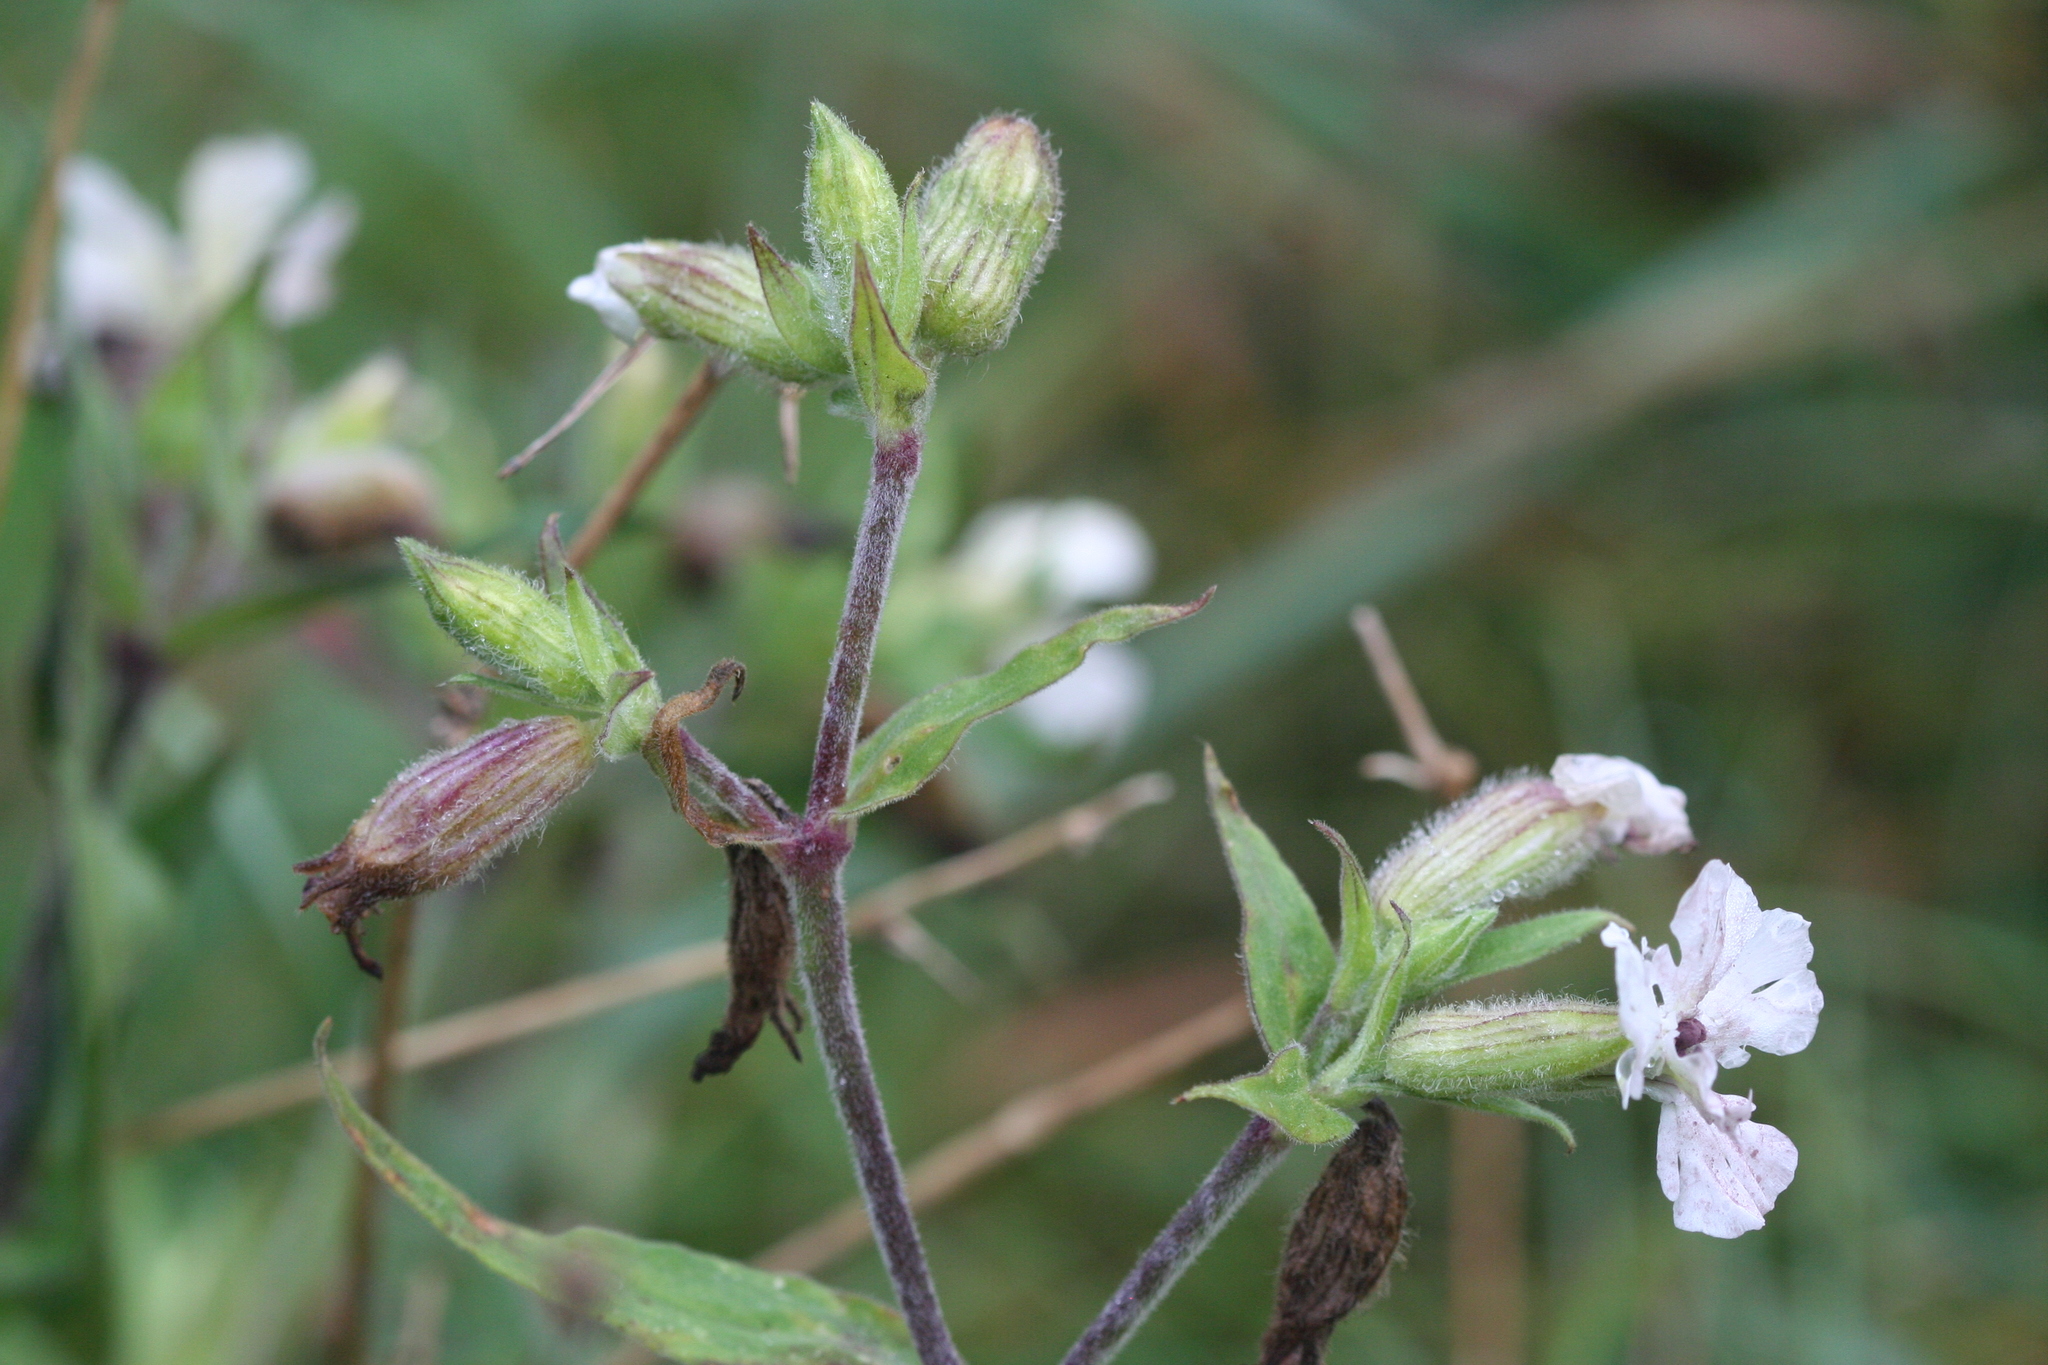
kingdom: Plantae
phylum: Tracheophyta
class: Magnoliopsida
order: Caryophyllales
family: Caryophyllaceae
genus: Silene
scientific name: Silene latifolia
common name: White campion
